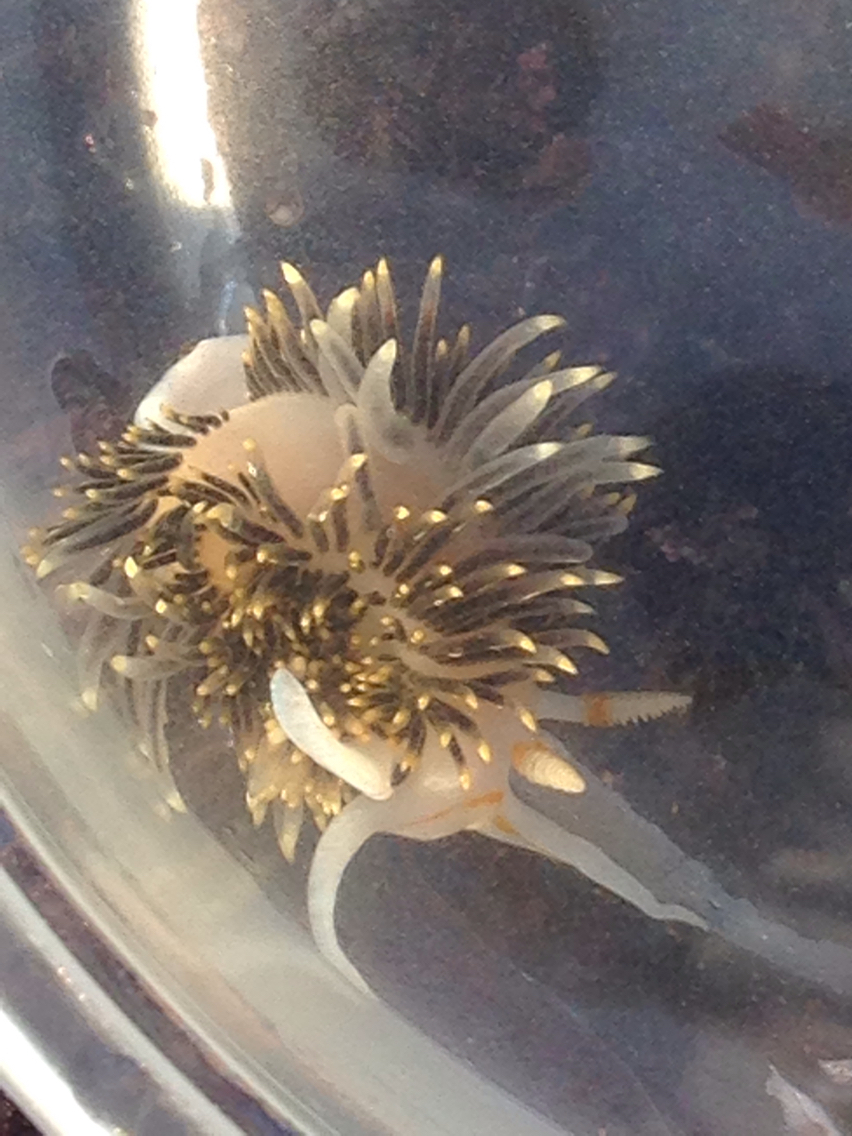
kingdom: Animalia
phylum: Mollusca
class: Gastropoda
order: Nudibranchia
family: Facelinidae
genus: Phidiana
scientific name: Phidiana hiltoni
